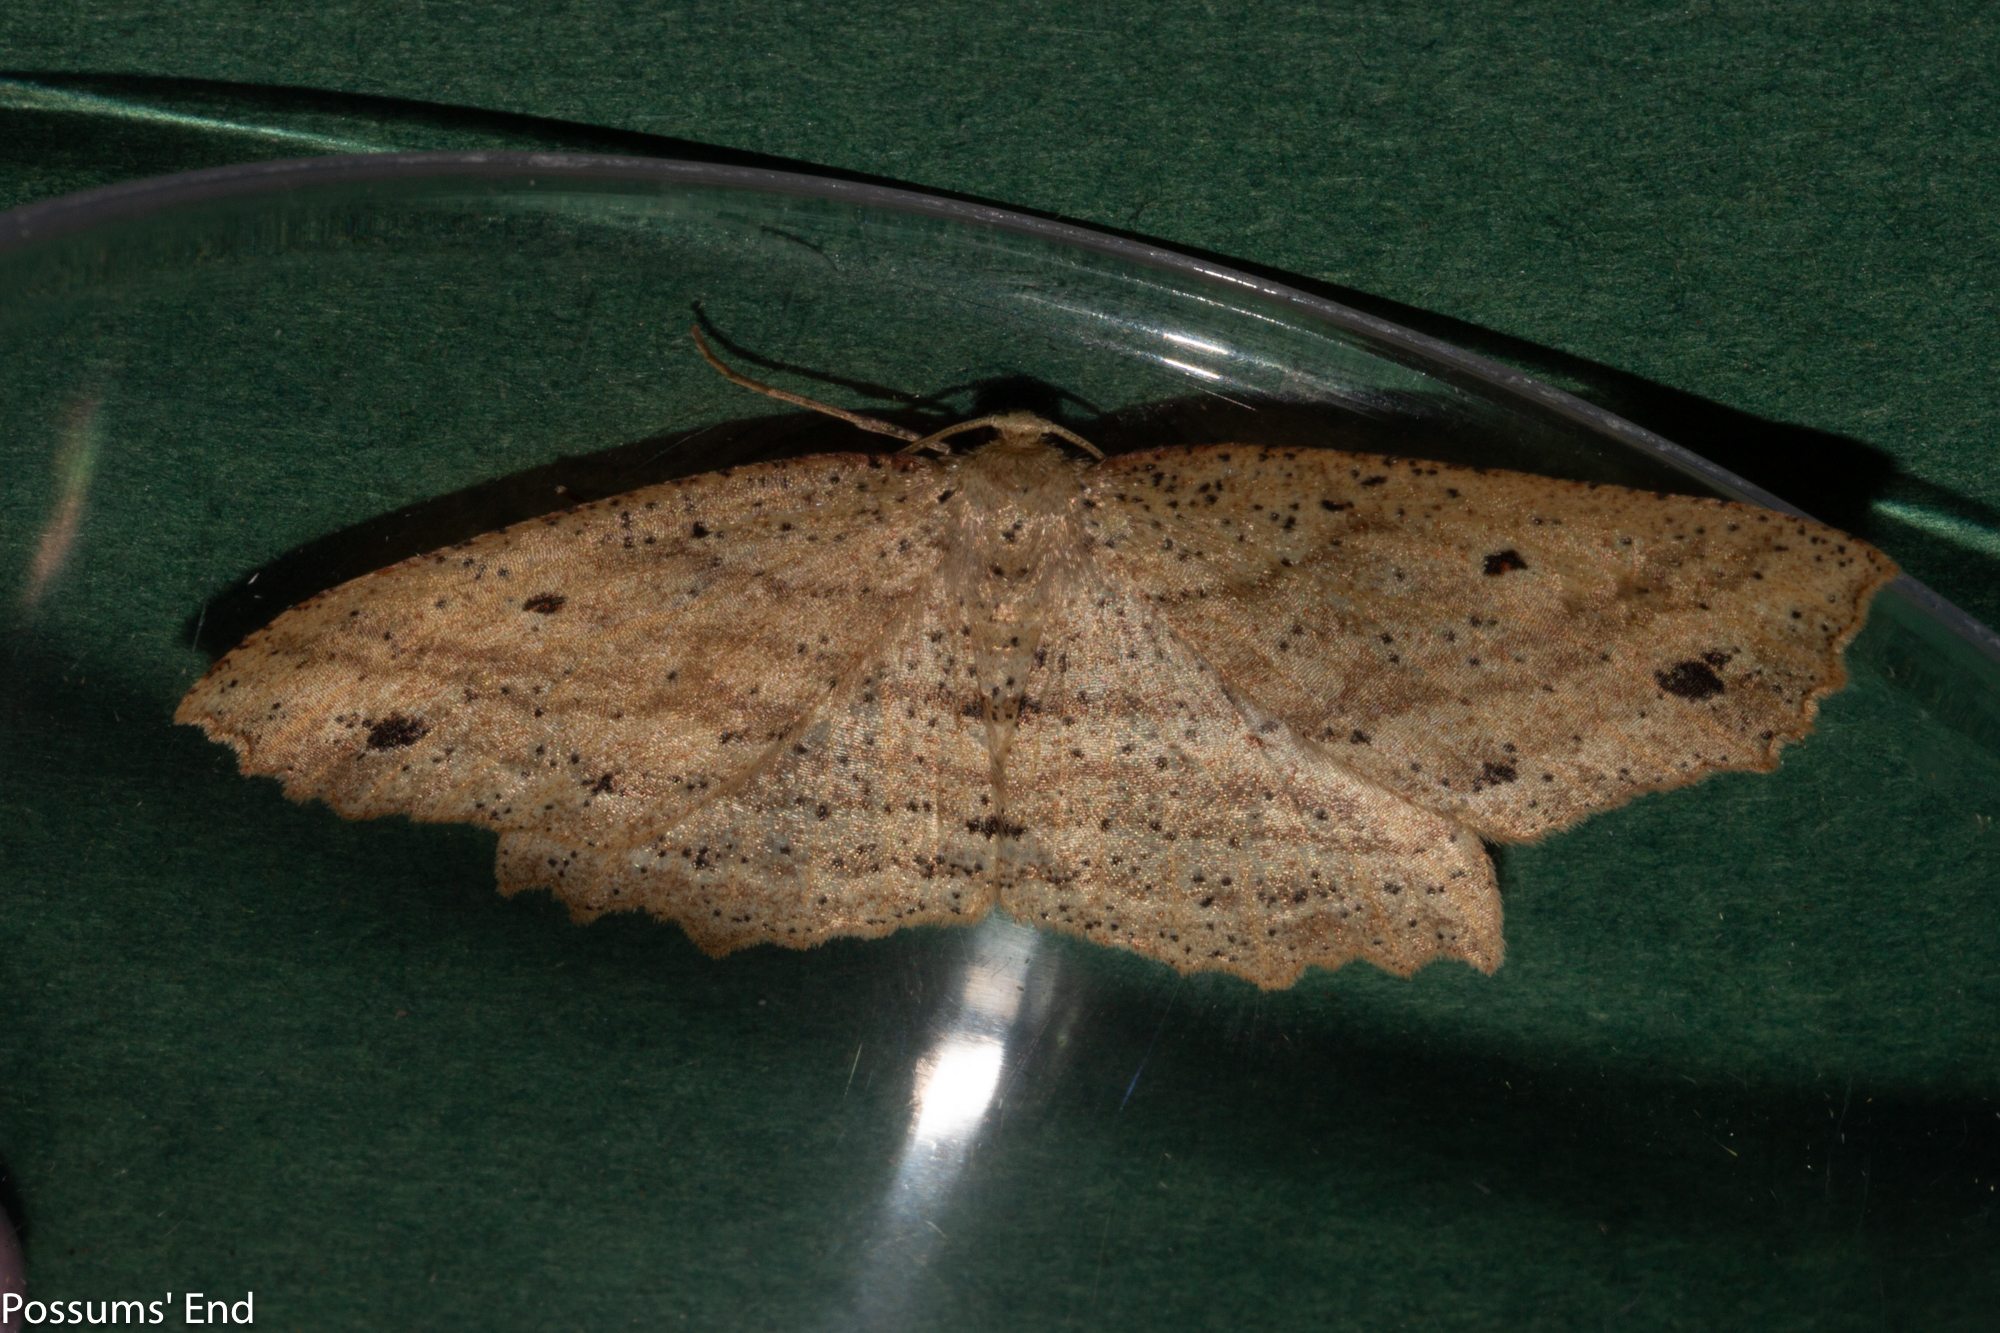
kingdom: Animalia
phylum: Arthropoda
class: Insecta
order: Lepidoptera
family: Geometridae
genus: Xyridacma
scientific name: Xyridacma veronicae
